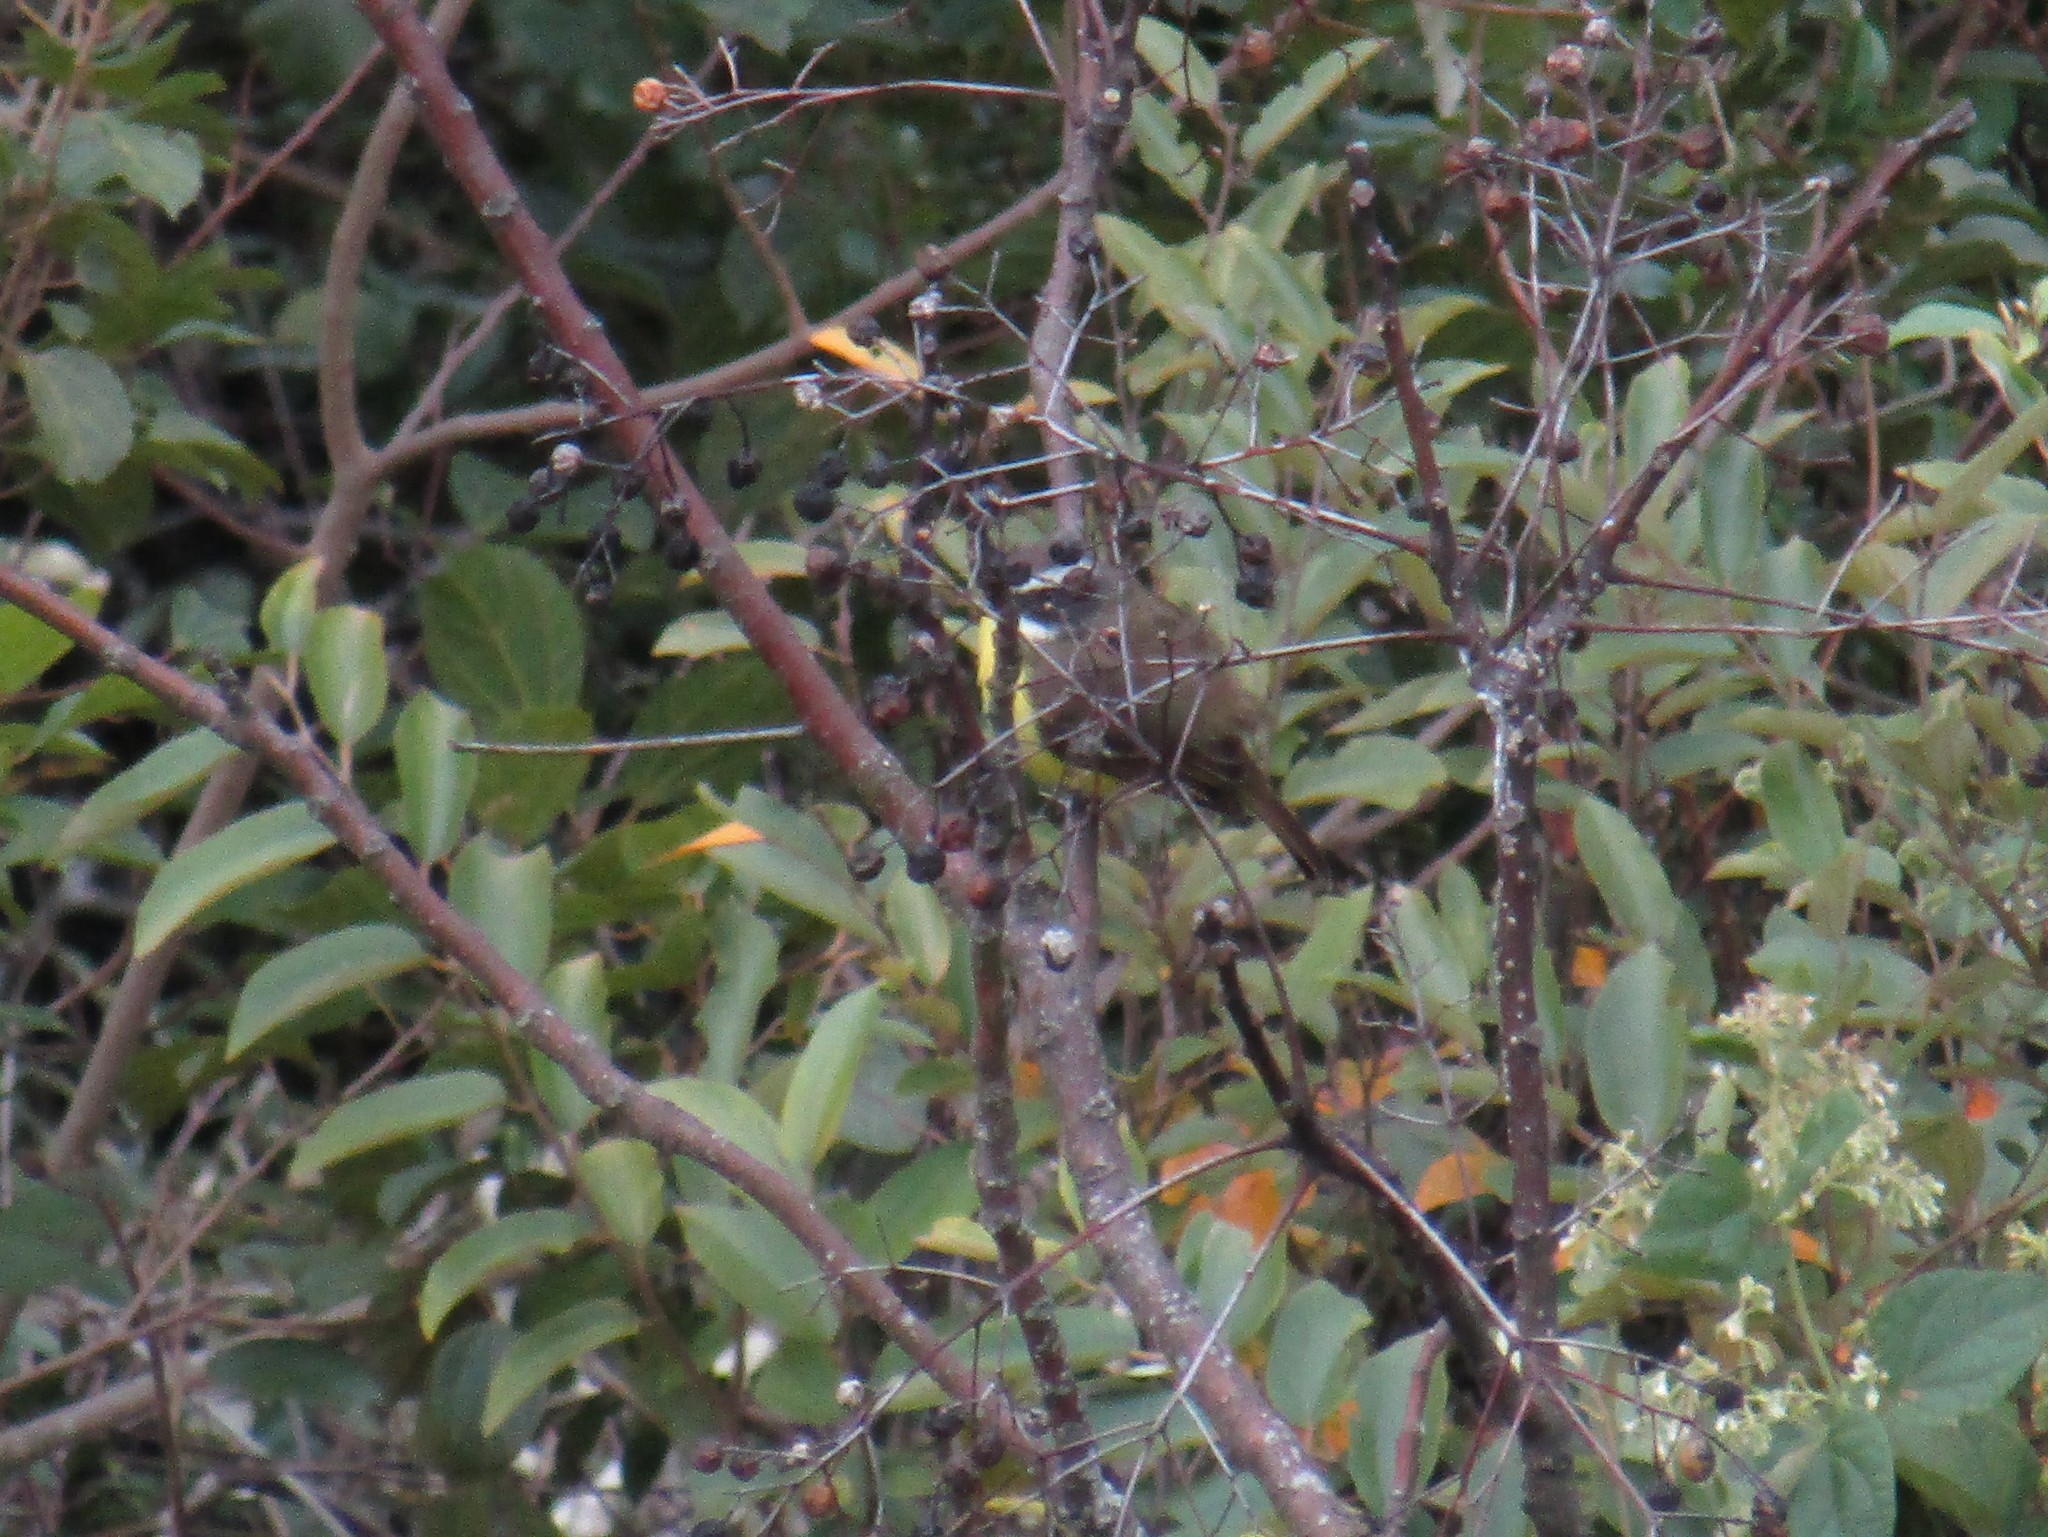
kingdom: Animalia
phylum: Chordata
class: Aves
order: Passeriformes
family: Tyrannidae
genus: Myiozetetes
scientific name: Myiozetetes similis
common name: Social flycatcher
